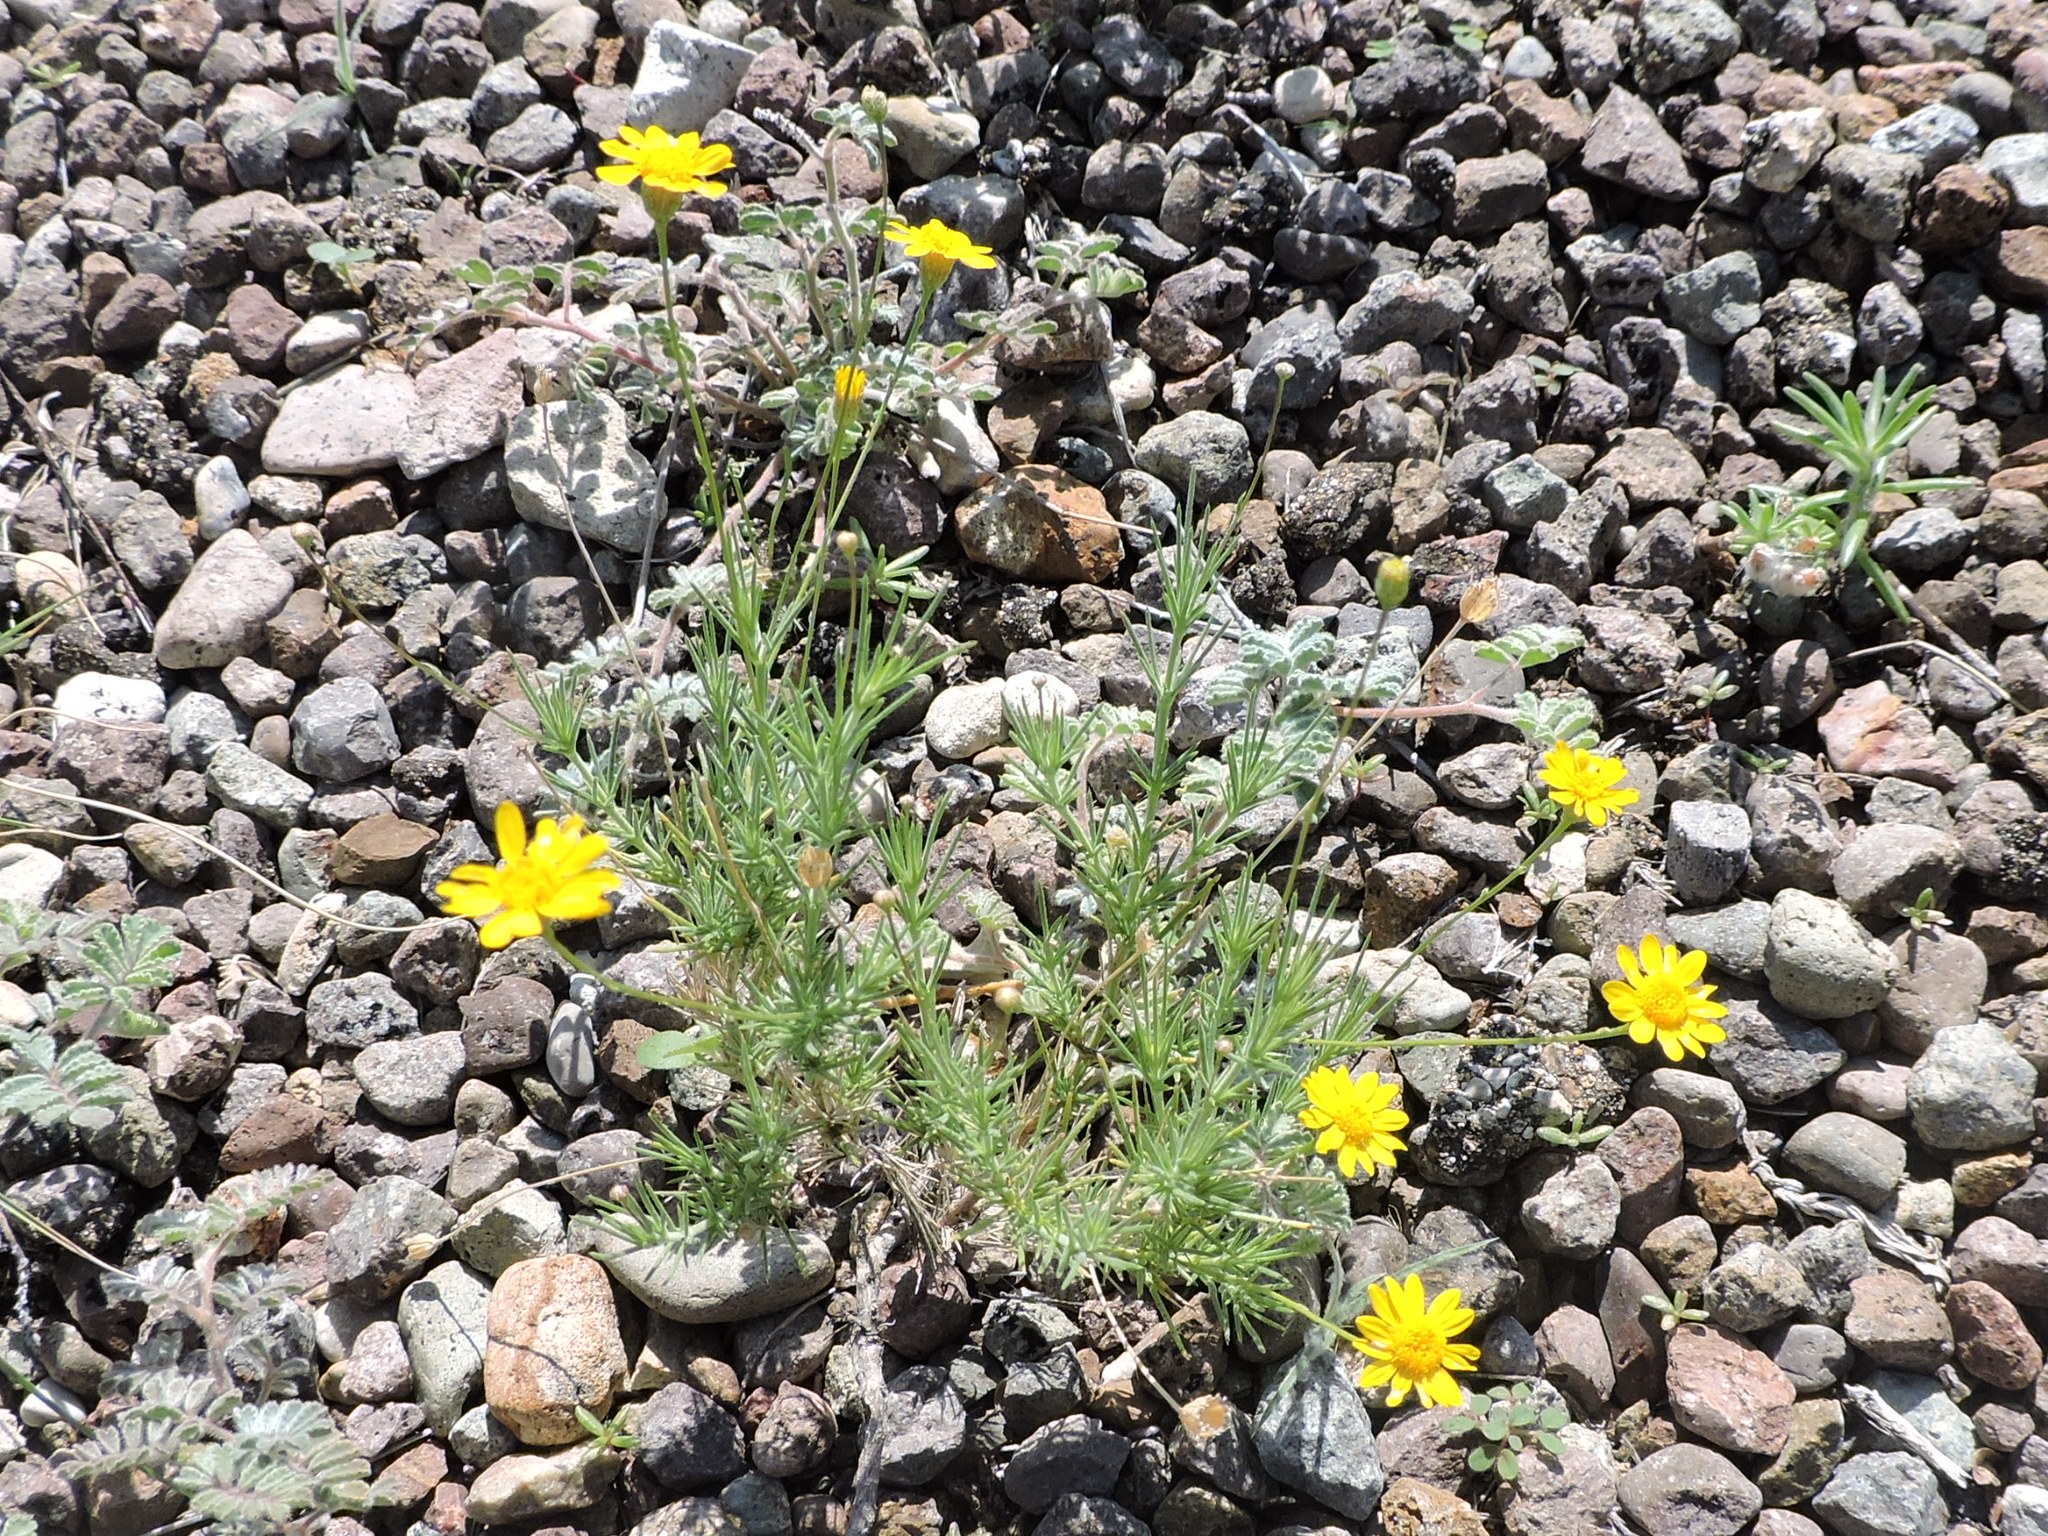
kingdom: Plantae
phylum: Tracheophyta
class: Magnoliopsida
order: Asterales
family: Asteraceae
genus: Thymophylla
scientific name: Thymophylla tenuiloba
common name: Dahlberg's daisy
